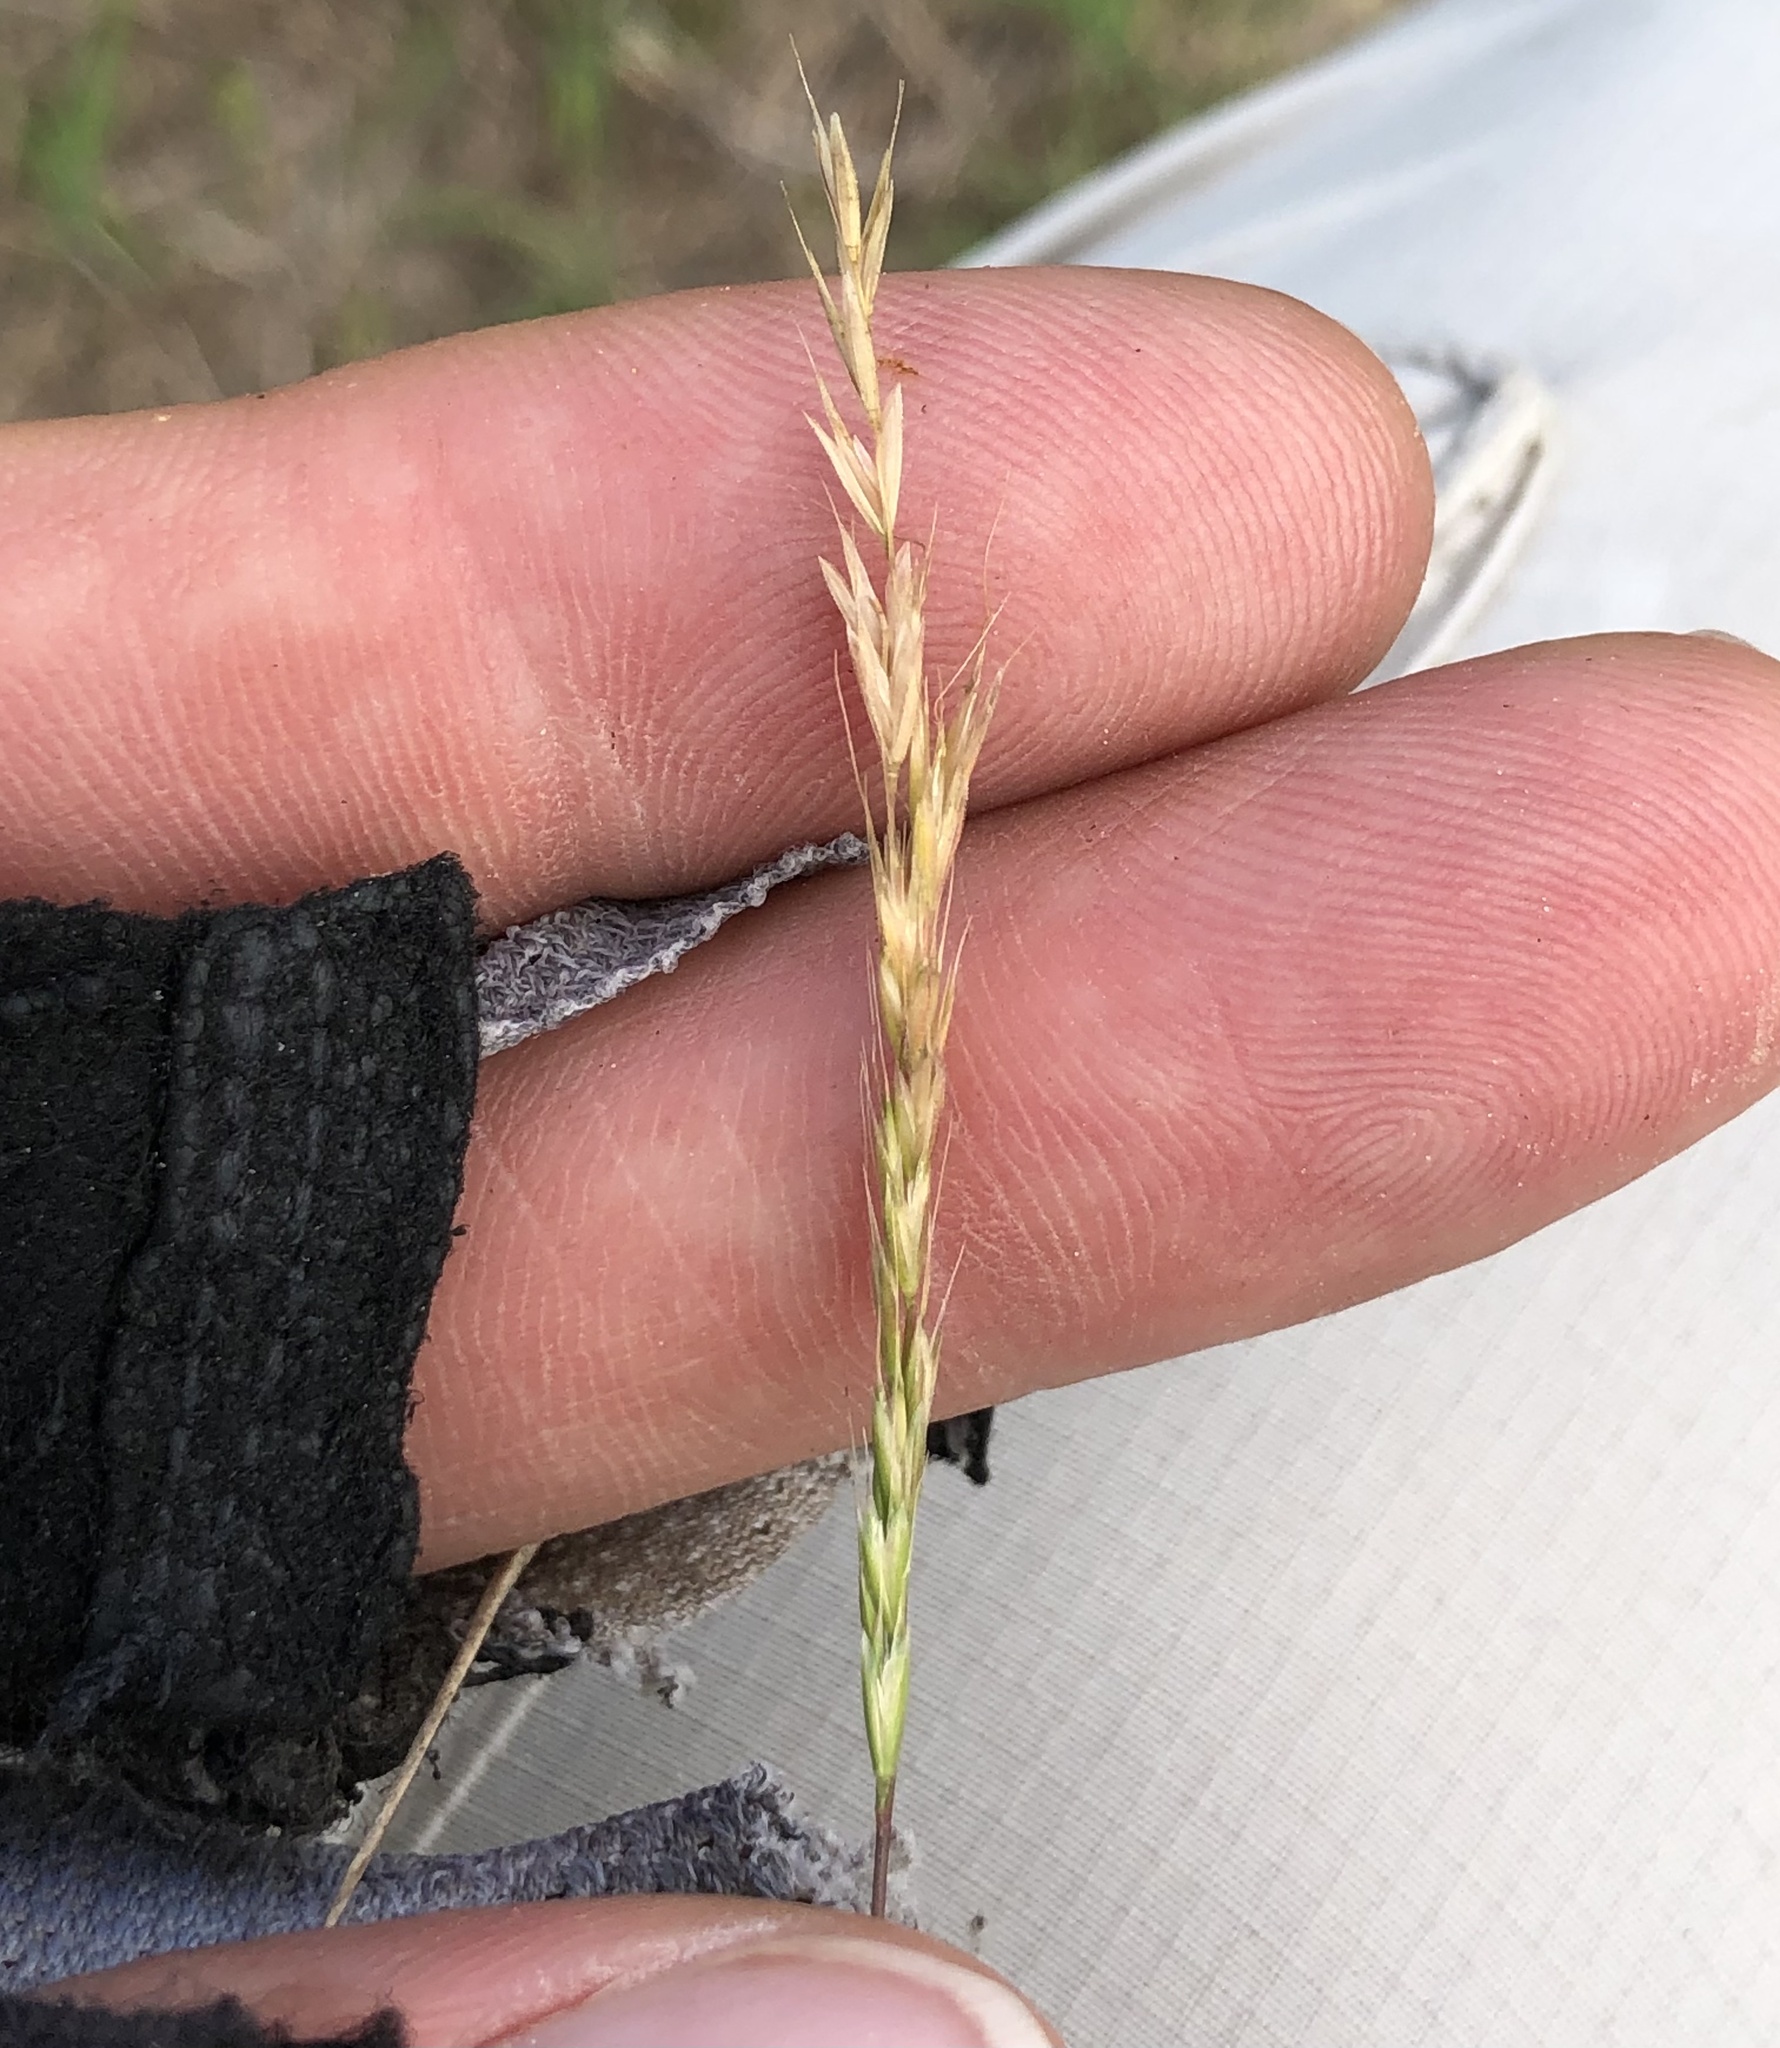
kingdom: Plantae
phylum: Tracheophyta
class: Liliopsida
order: Poales
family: Poaceae
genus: Trisetum
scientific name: Trisetum interruptum
